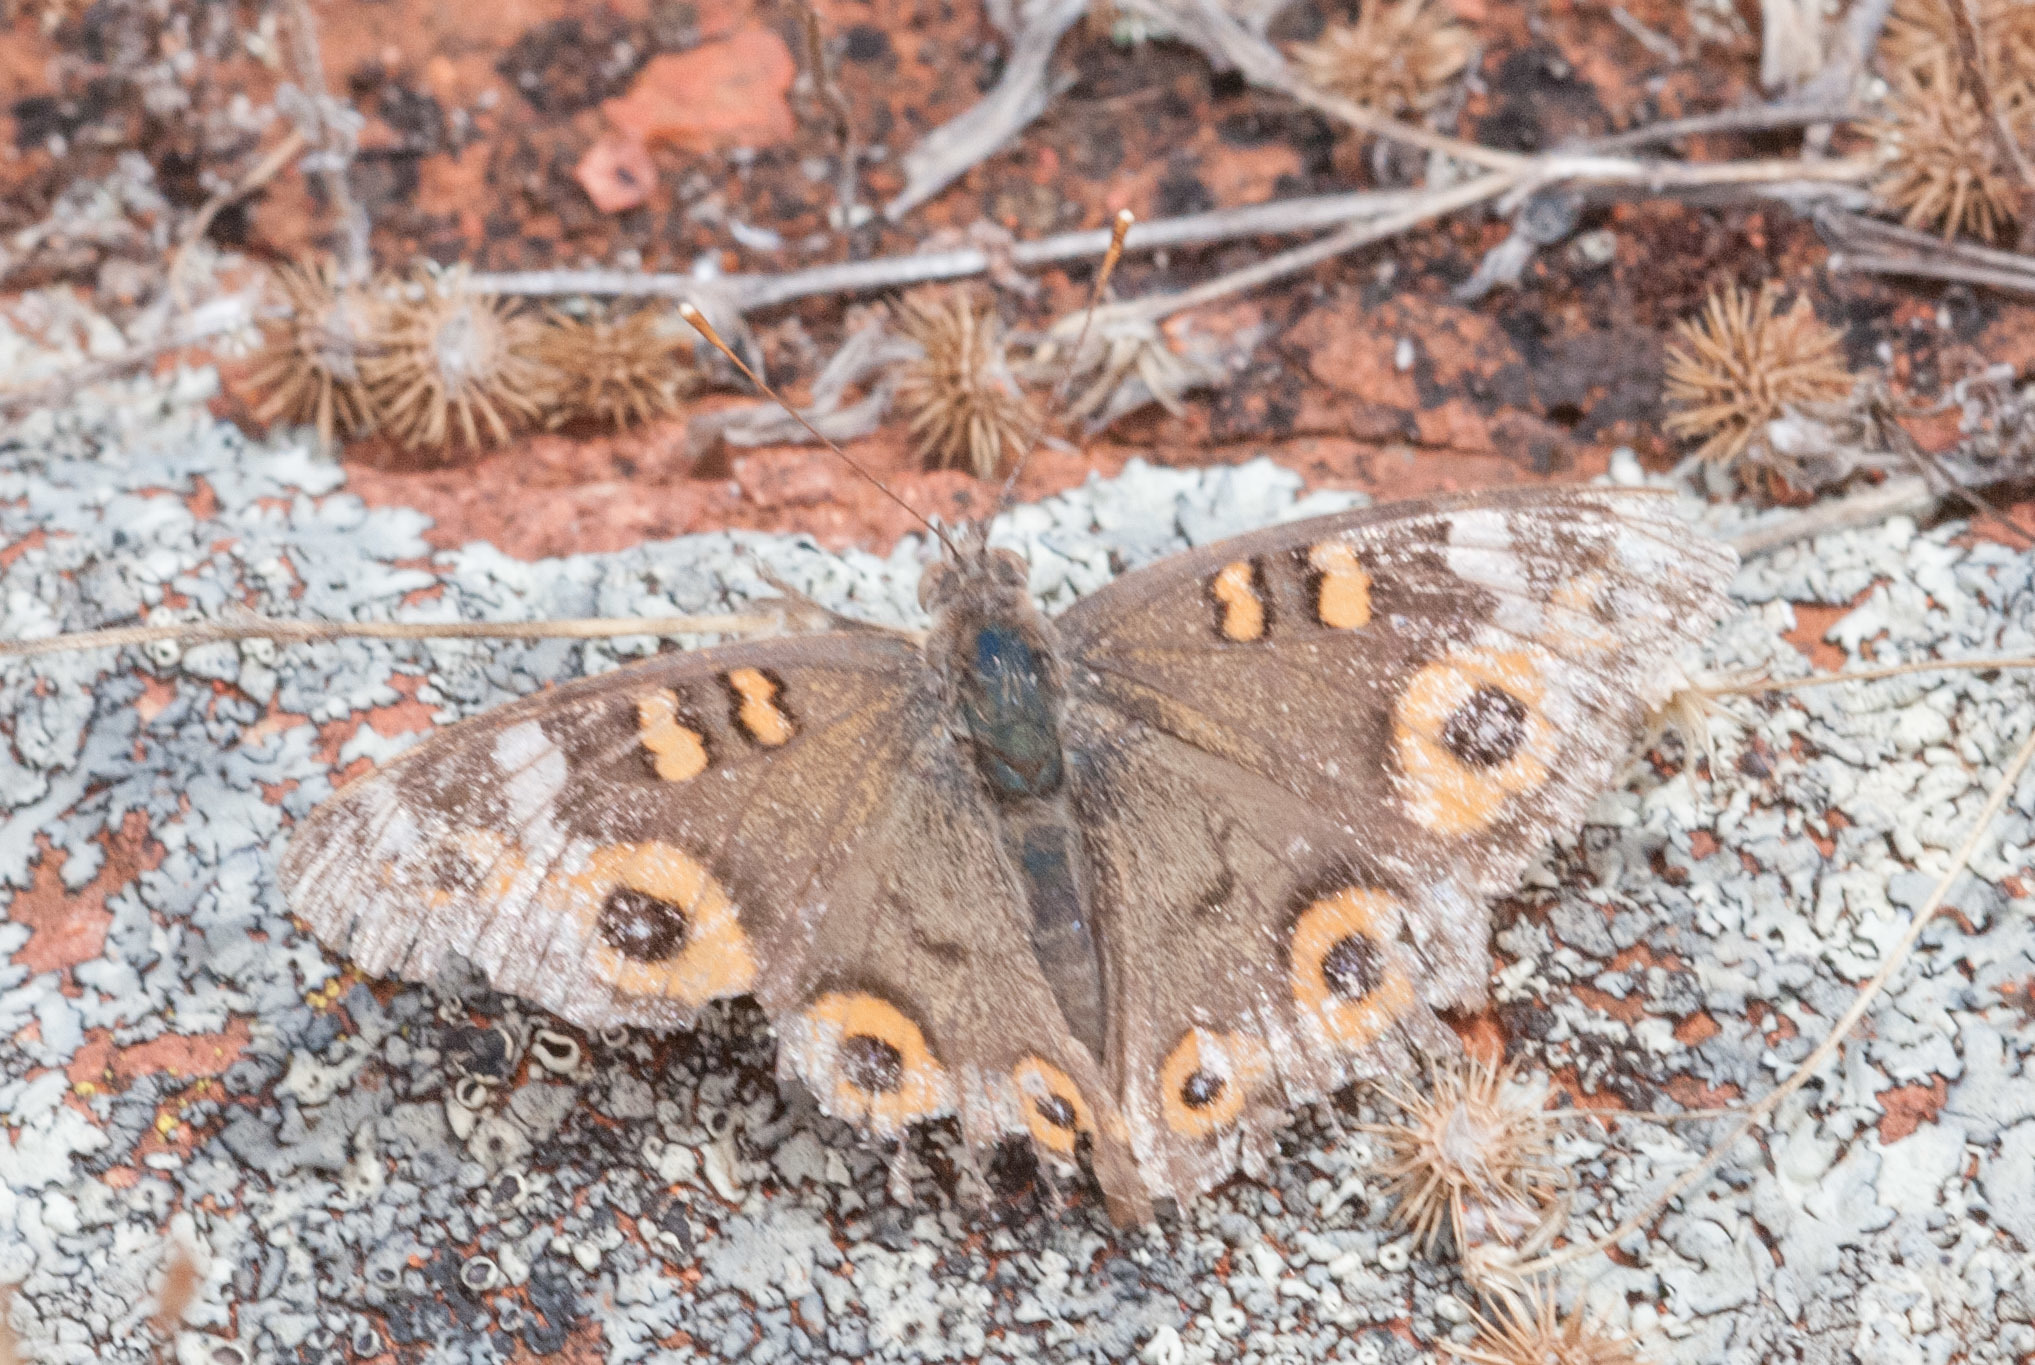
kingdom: Animalia
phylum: Arthropoda
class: Insecta
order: Lepidoptera
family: Nymphalidae
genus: Junonia
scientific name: Junonia villida
